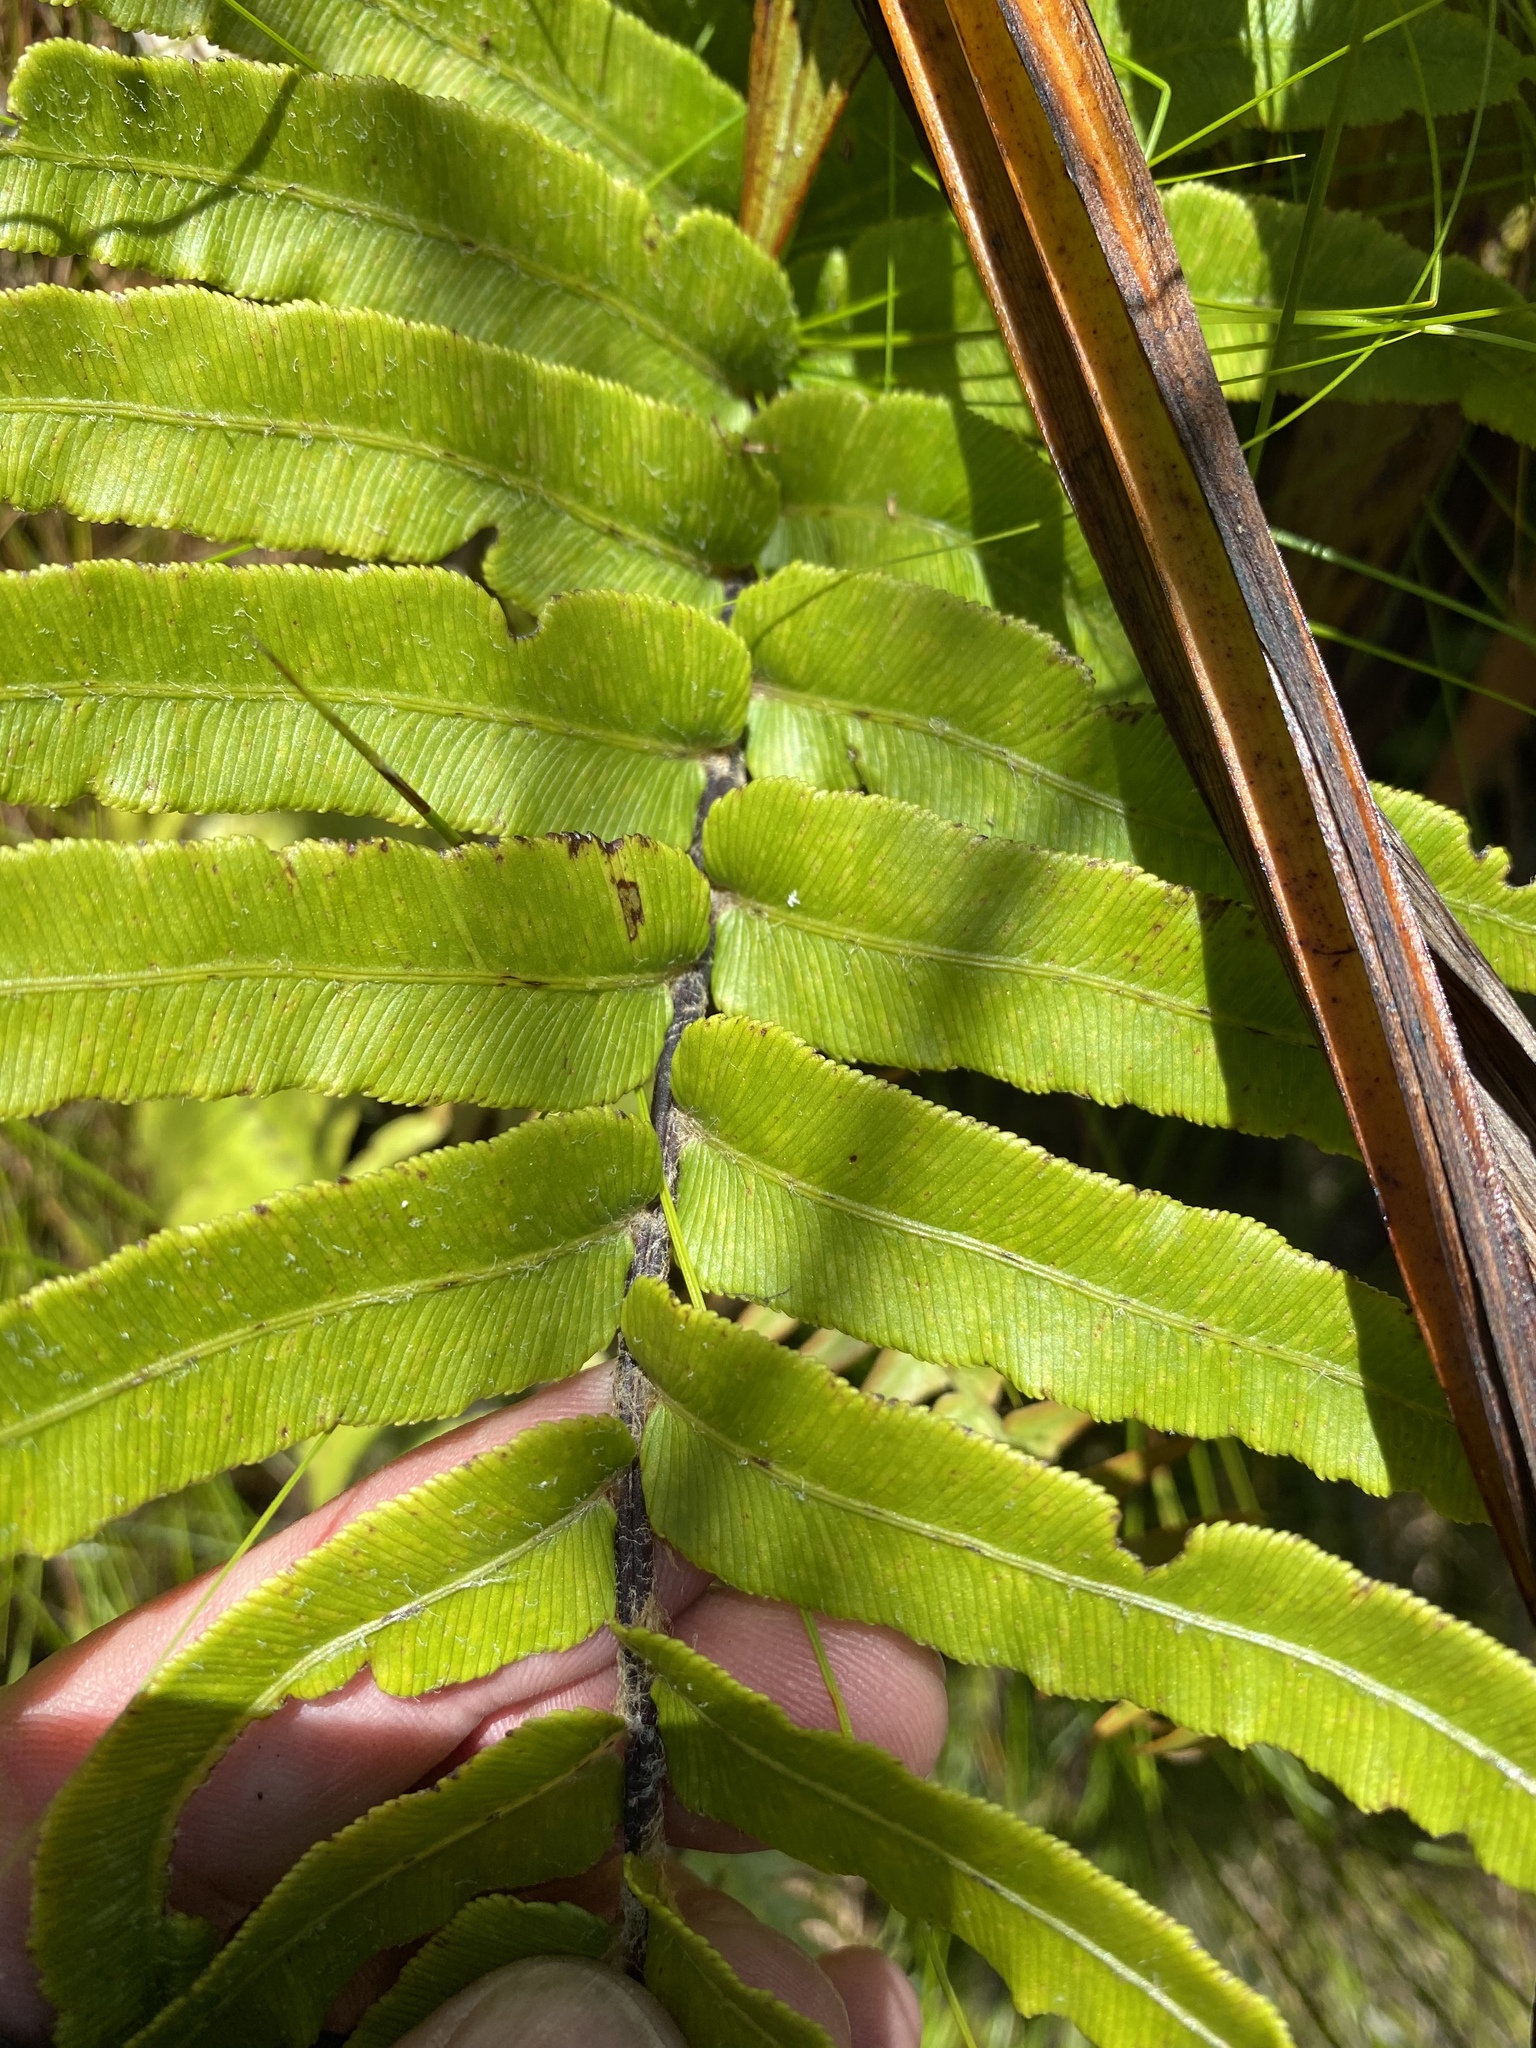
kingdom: Plantae
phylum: Tracheophyta
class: Polypodiopsida
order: Polypodiales
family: Blechnaceae
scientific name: Blechnaceae
